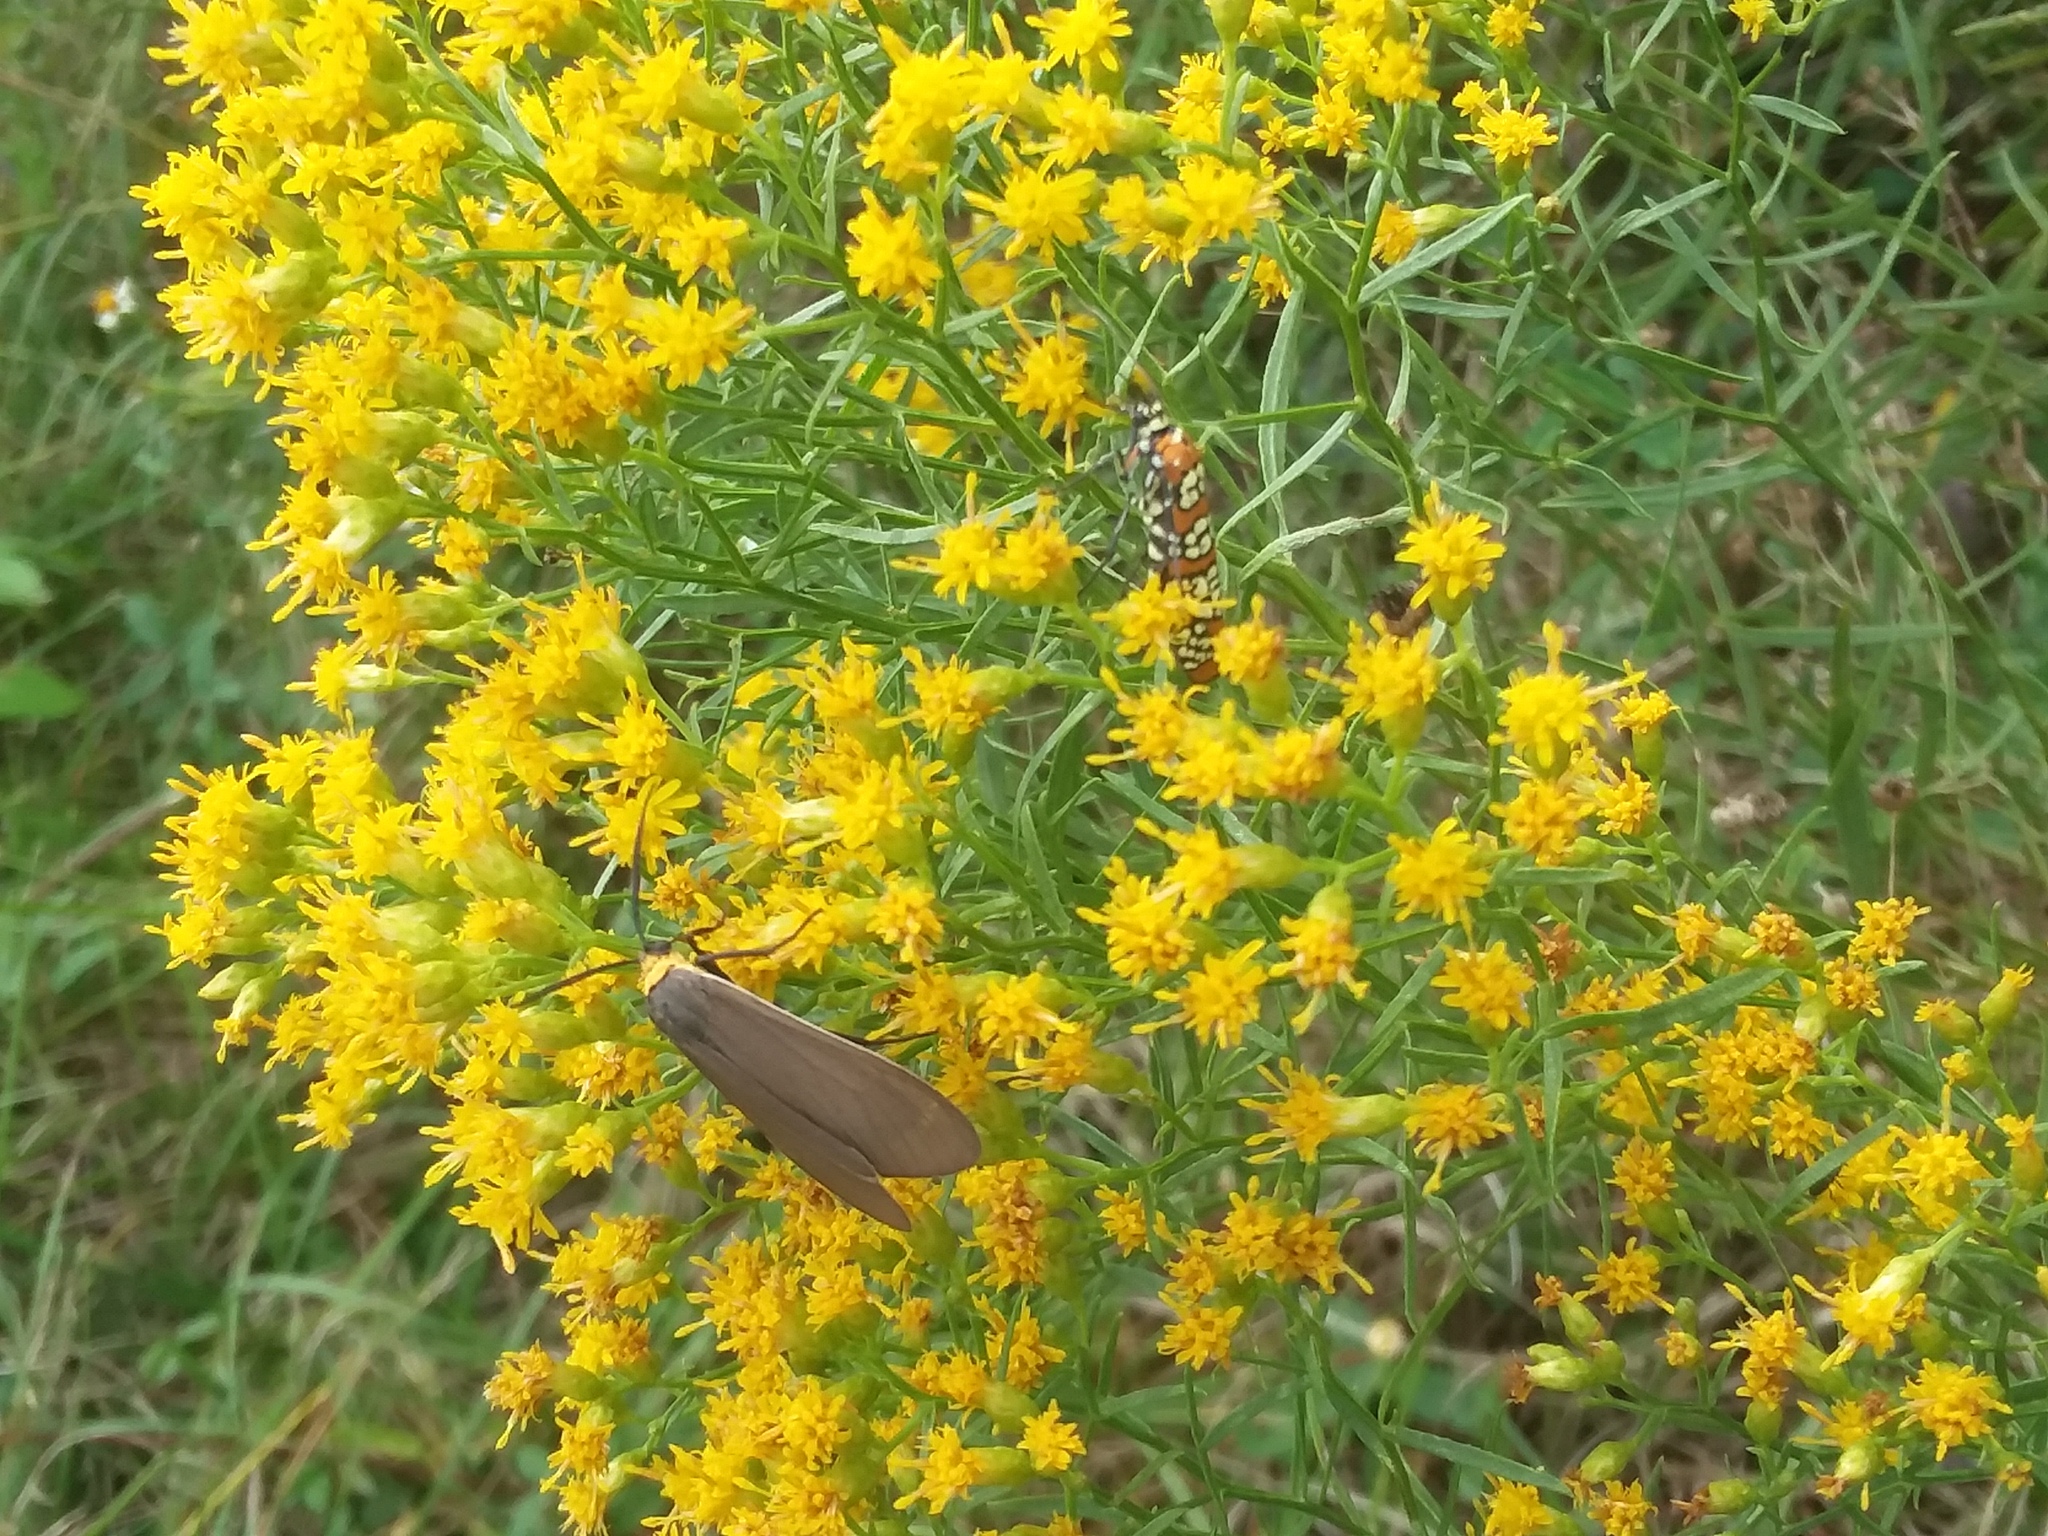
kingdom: Animalia
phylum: Arthropoda
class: Insecta
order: Lepidoptera
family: Erebidae
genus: Cisseps
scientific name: Cisseps fulvicollis
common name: Yellow-collared scape moth
